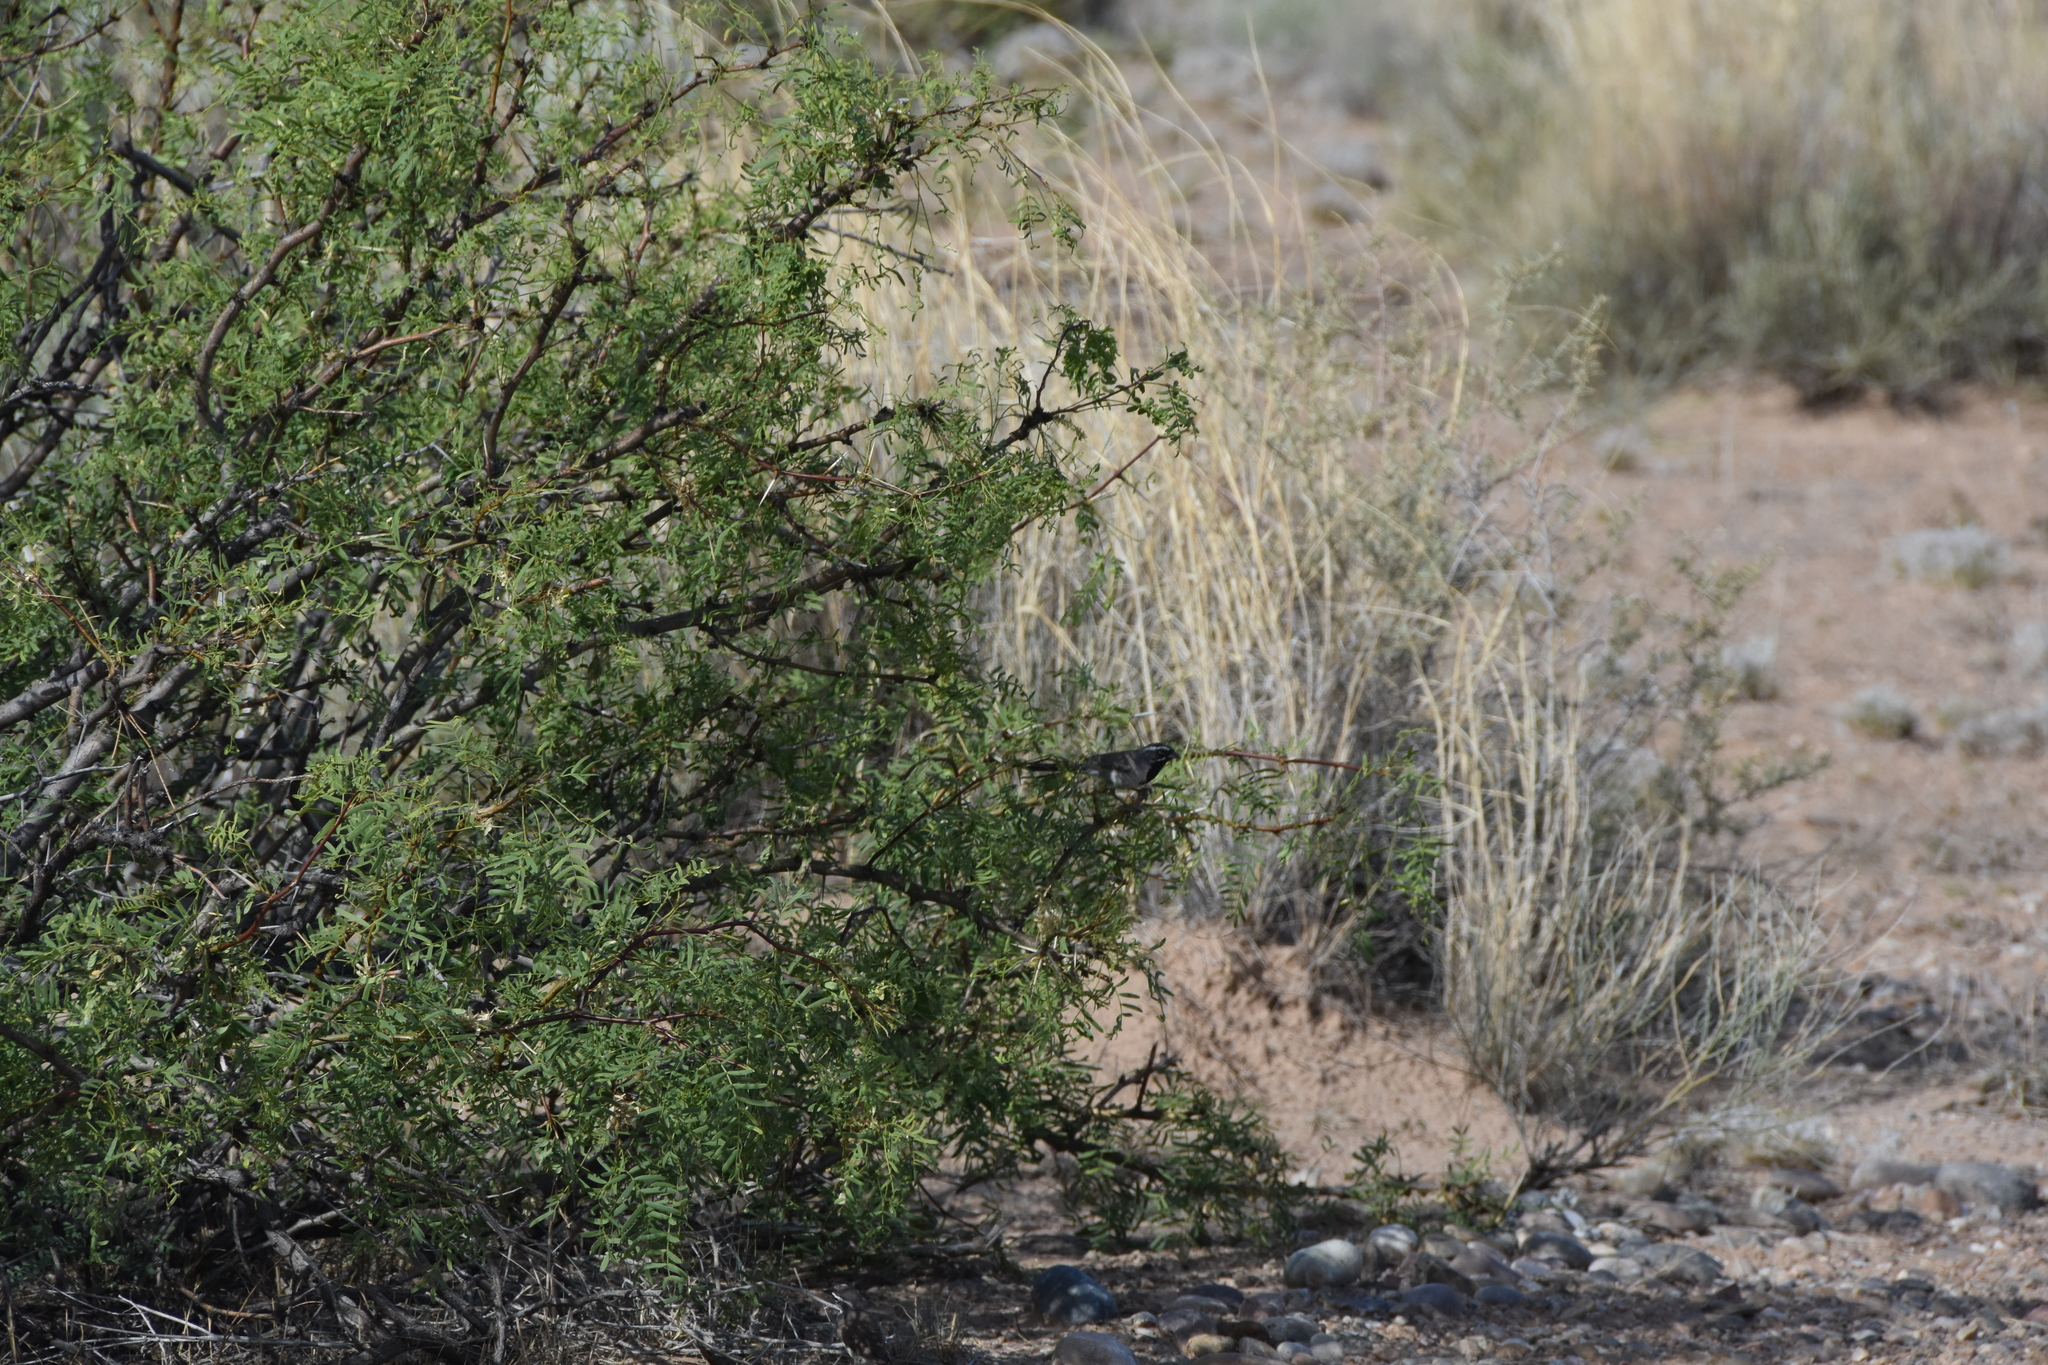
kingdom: Animalia
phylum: Chordata
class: Aves
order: Passeriformes
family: Passerellidae
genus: Amphispiza
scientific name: Amphispiza bilineata
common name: Black-throated sparrow
